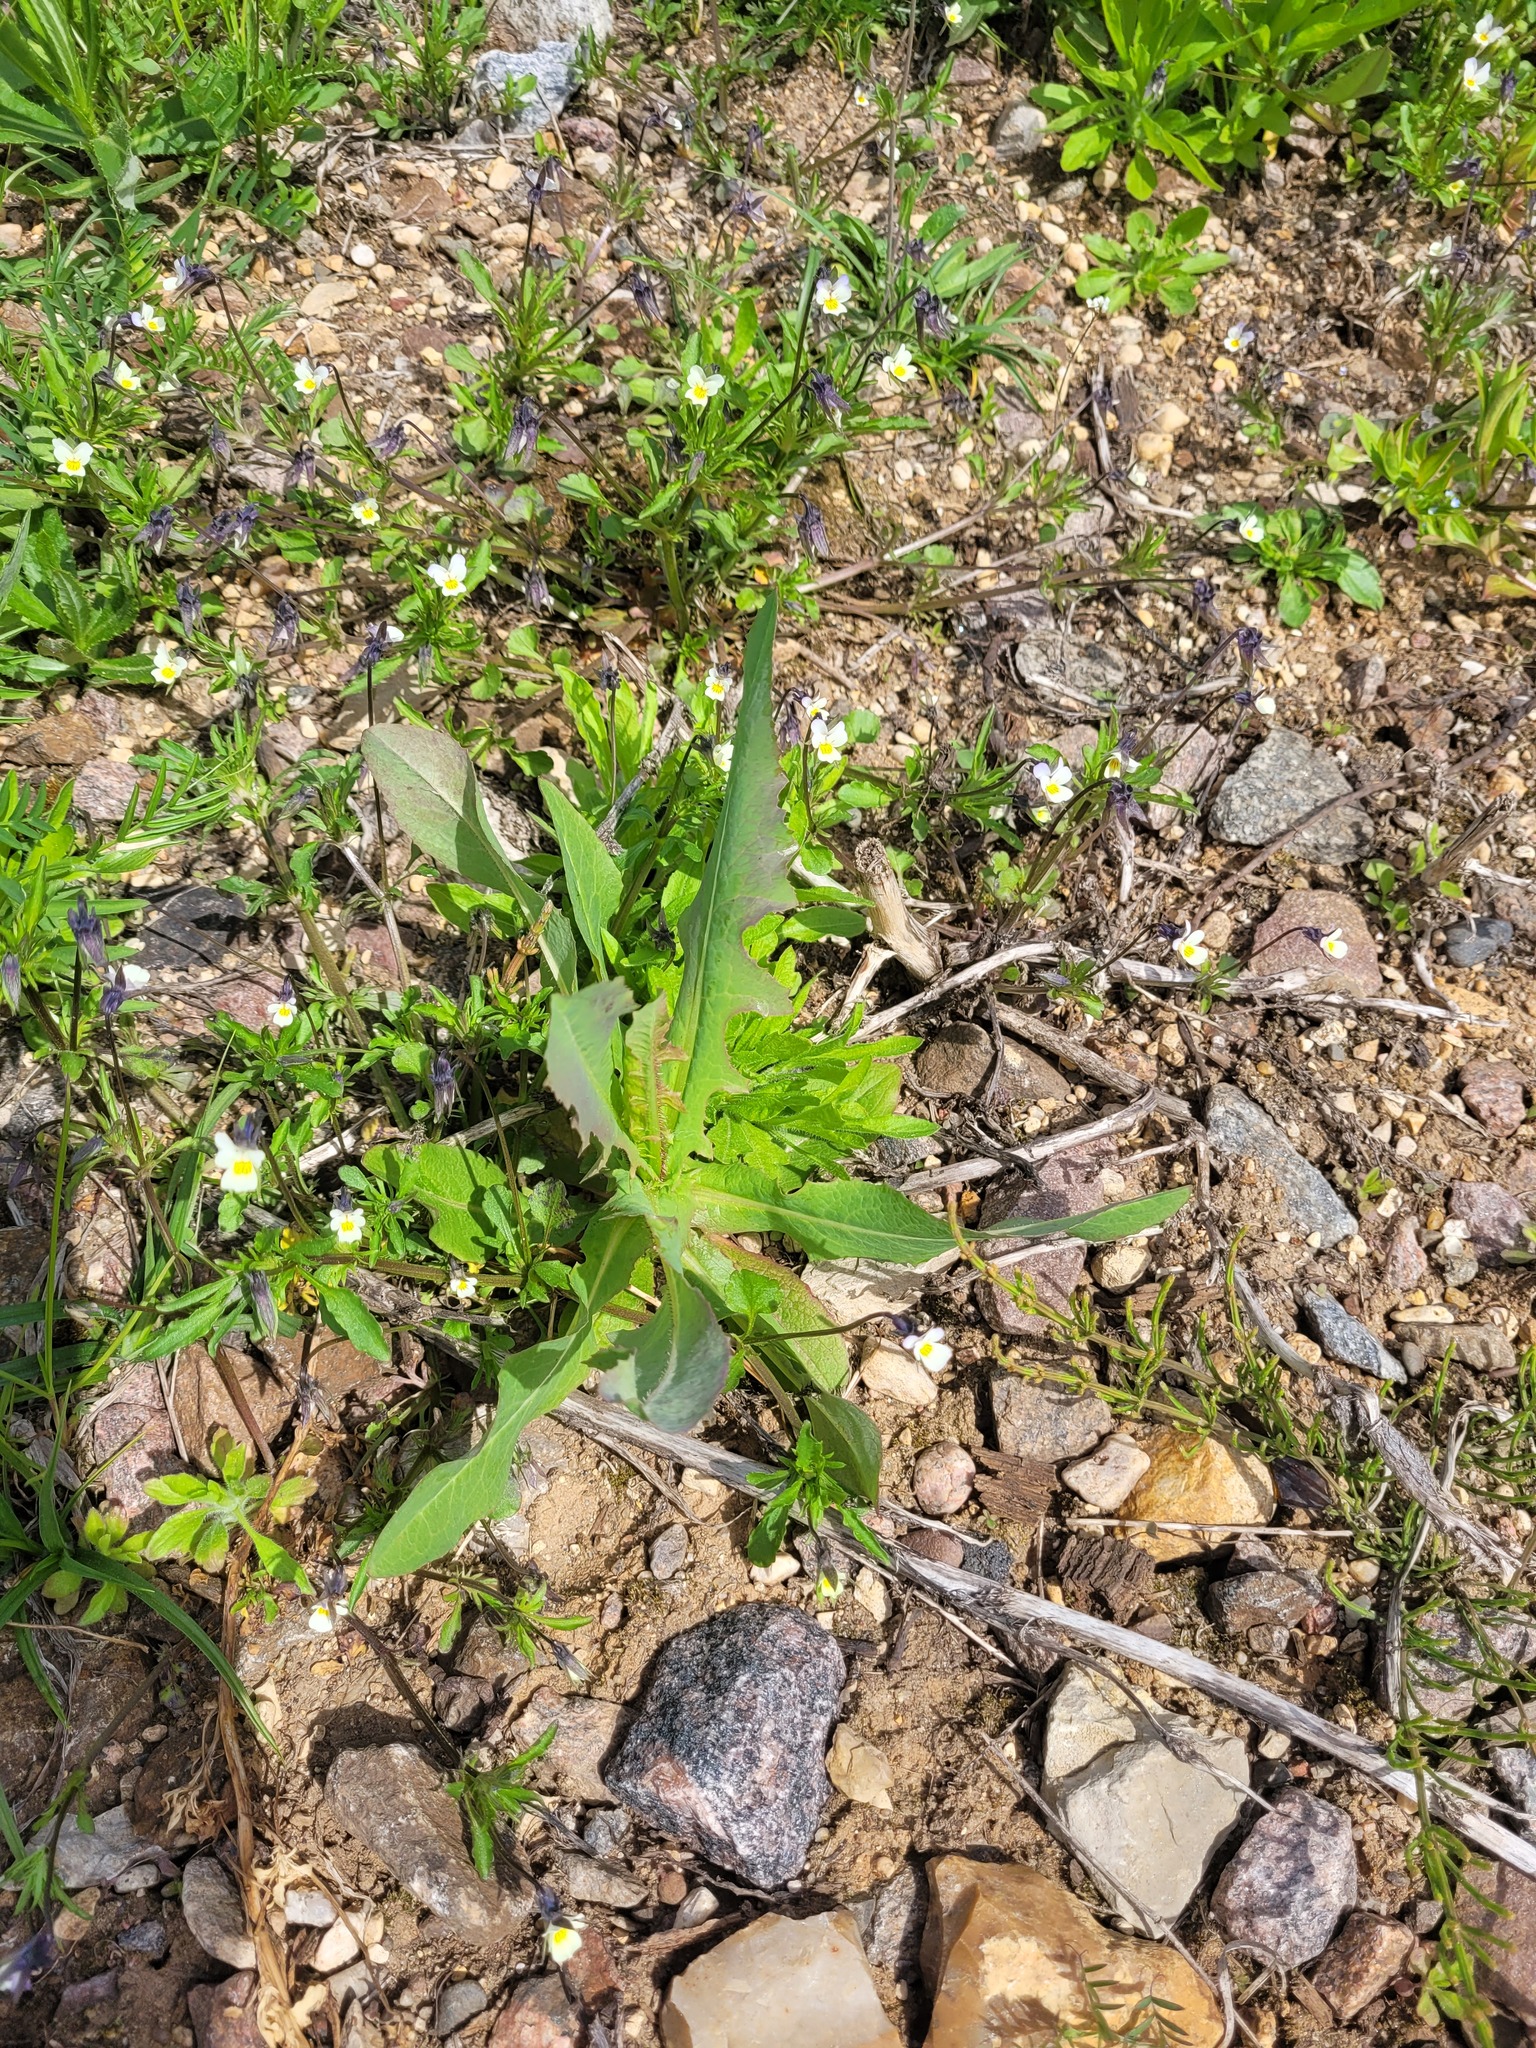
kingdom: Plantae
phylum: Tracheophyta
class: Magnoliopsida
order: Asterales
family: Asteraceae
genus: Lactuca
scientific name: Lactuca serriola
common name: Prickly lettuce
